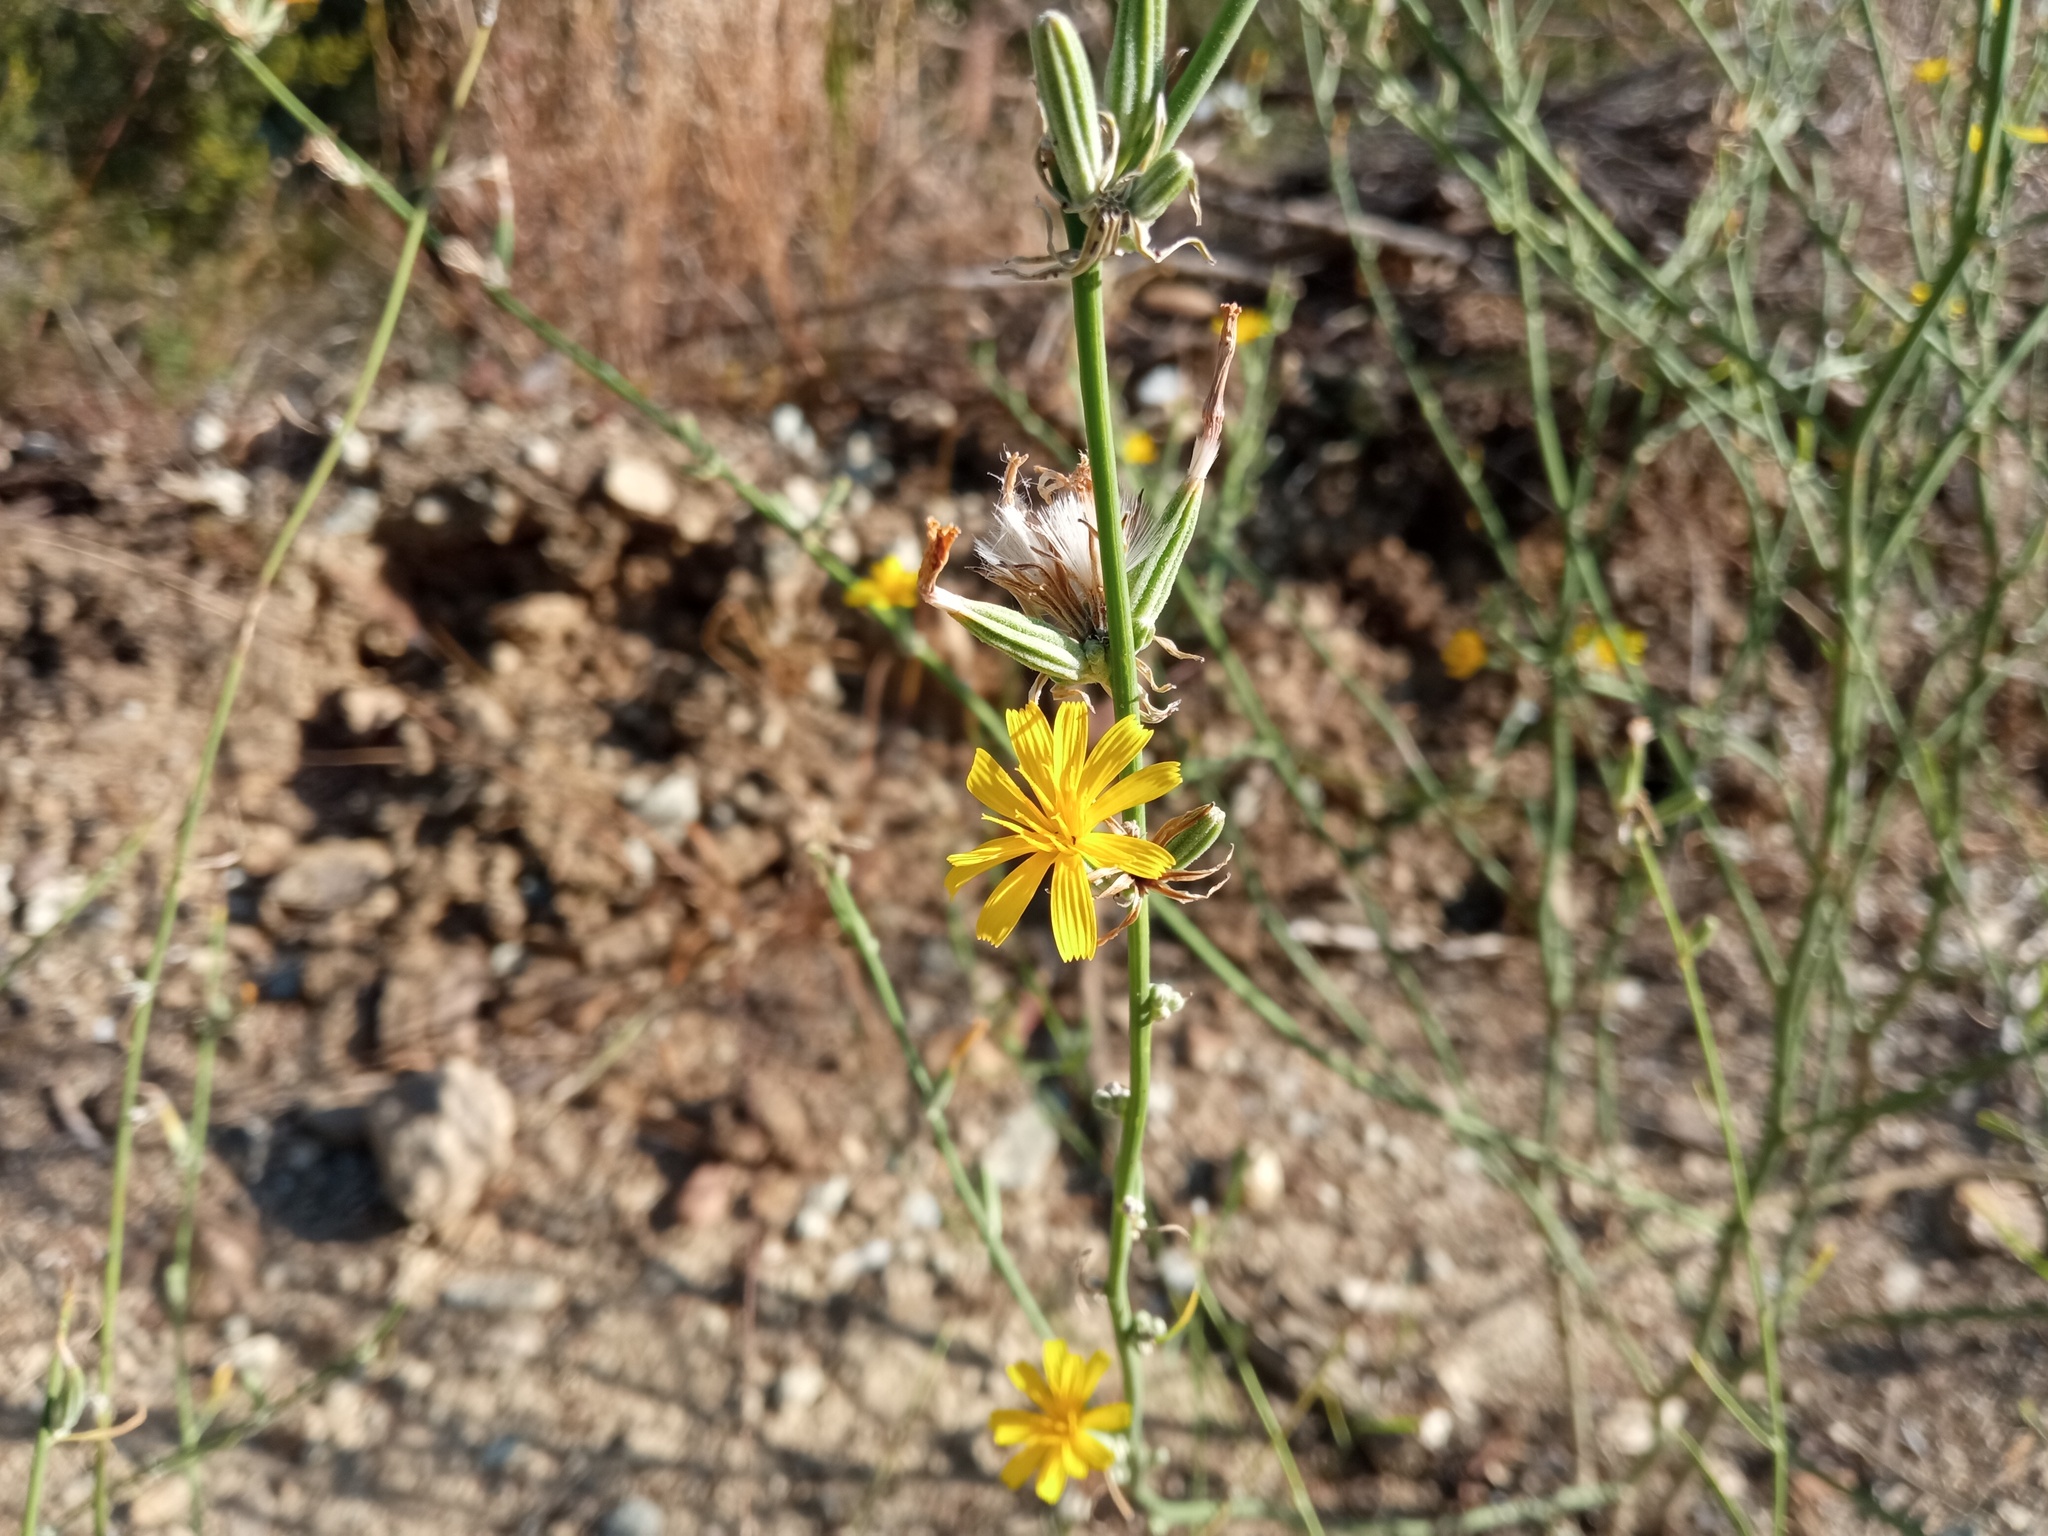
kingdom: Plantae
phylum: Tracheophyta
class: Magnoliopsida
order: Asterales
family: Asteraceae
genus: Chondrilla
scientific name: Chondrilla juncea
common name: Skeleton weed
